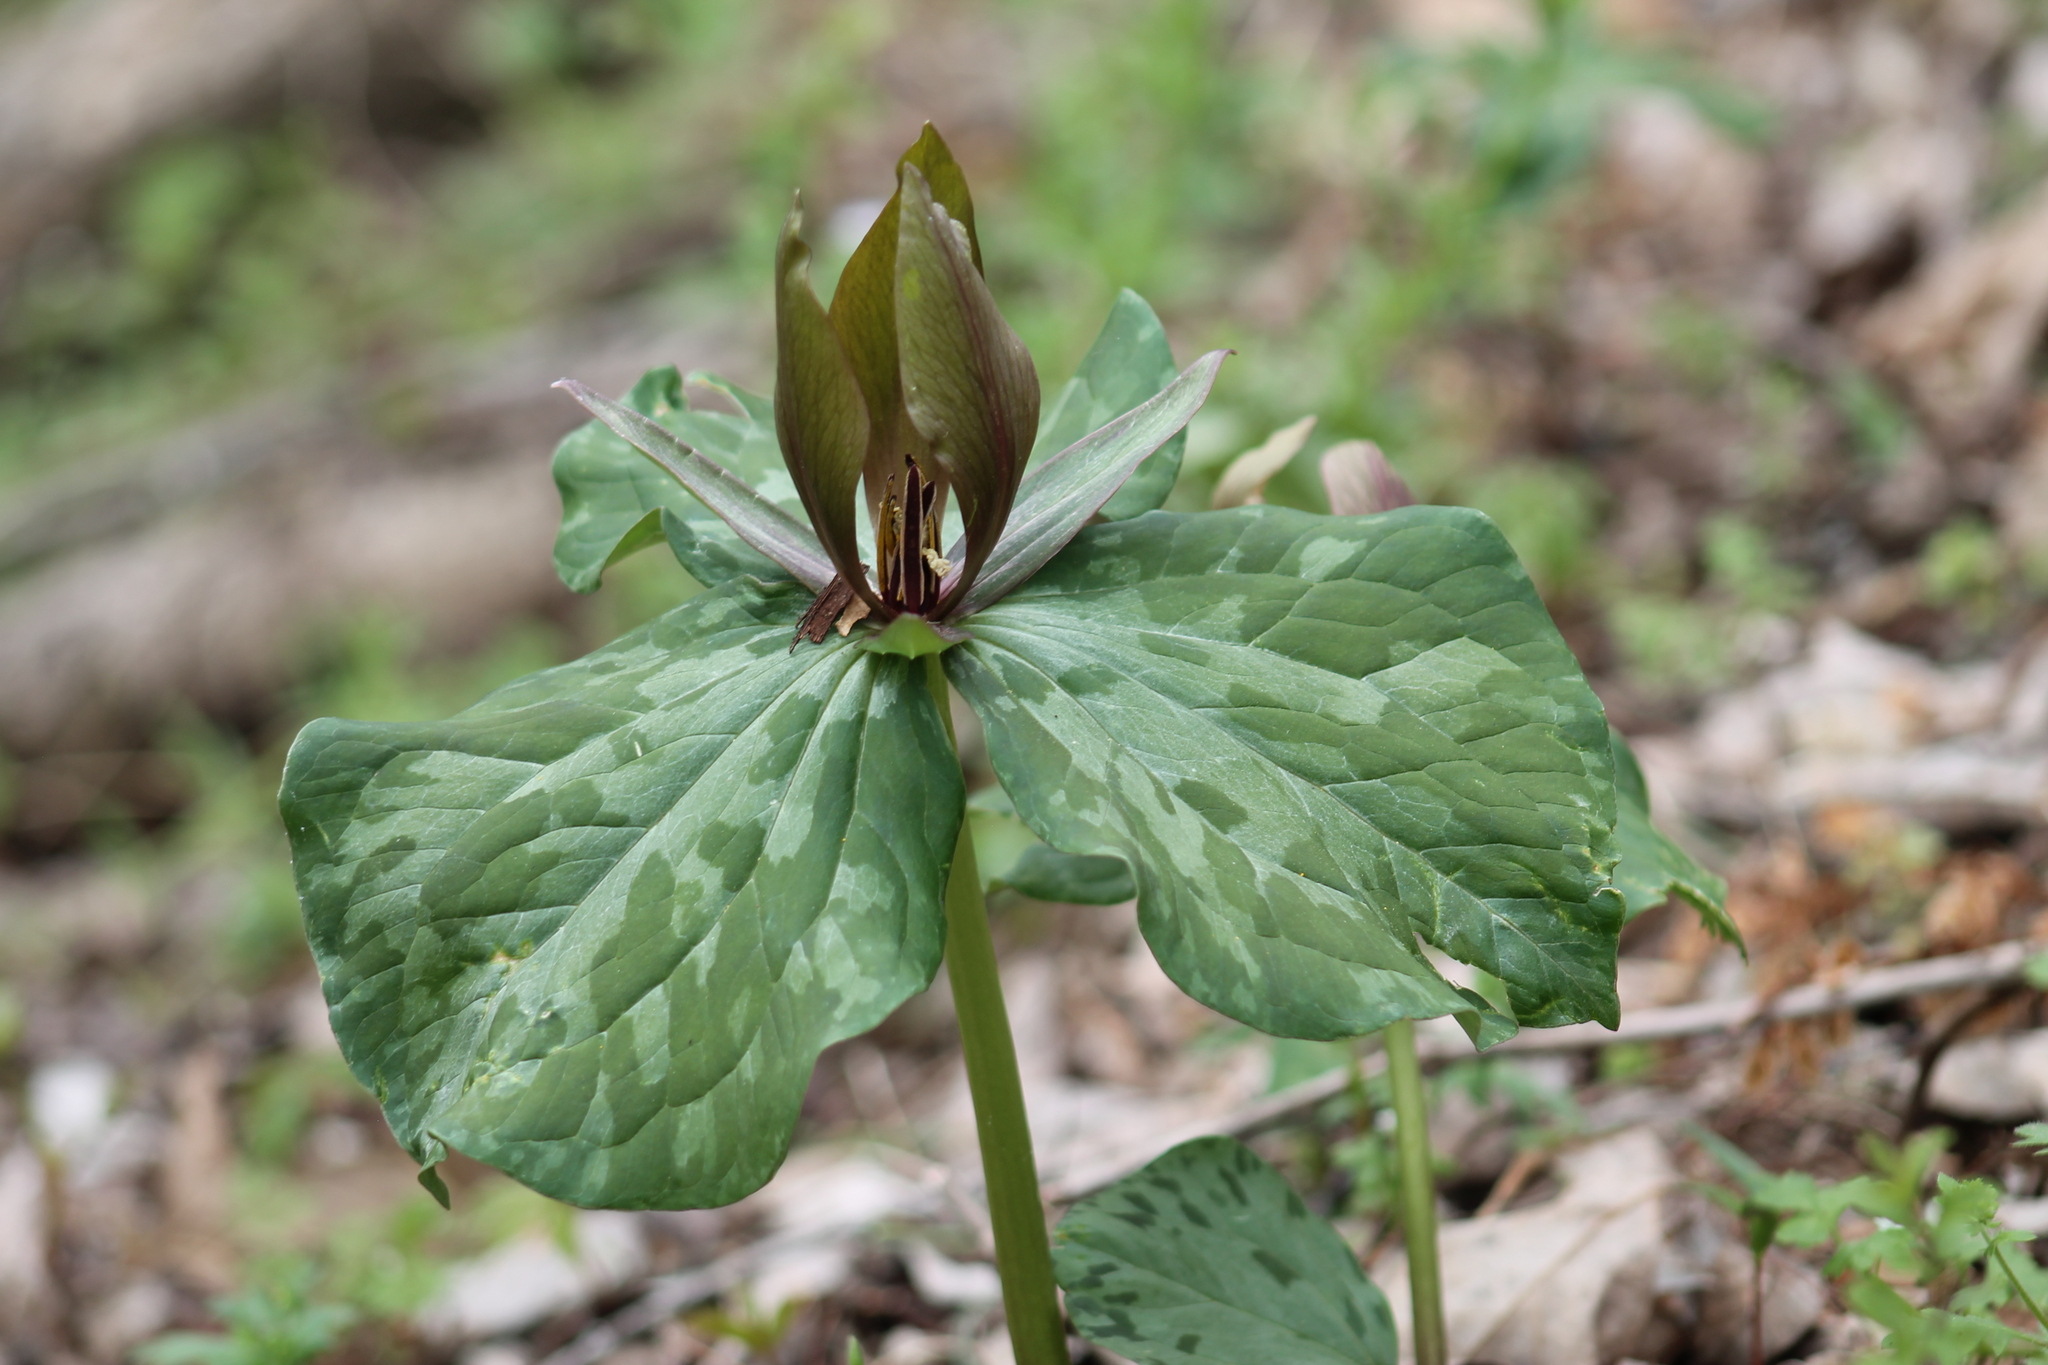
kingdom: Plantae
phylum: Tracheophyta
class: Liliopsida
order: Liliales
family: Melanthiaceae
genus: Trillium
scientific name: Trillium cuneatum
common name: Cuneate trillium
